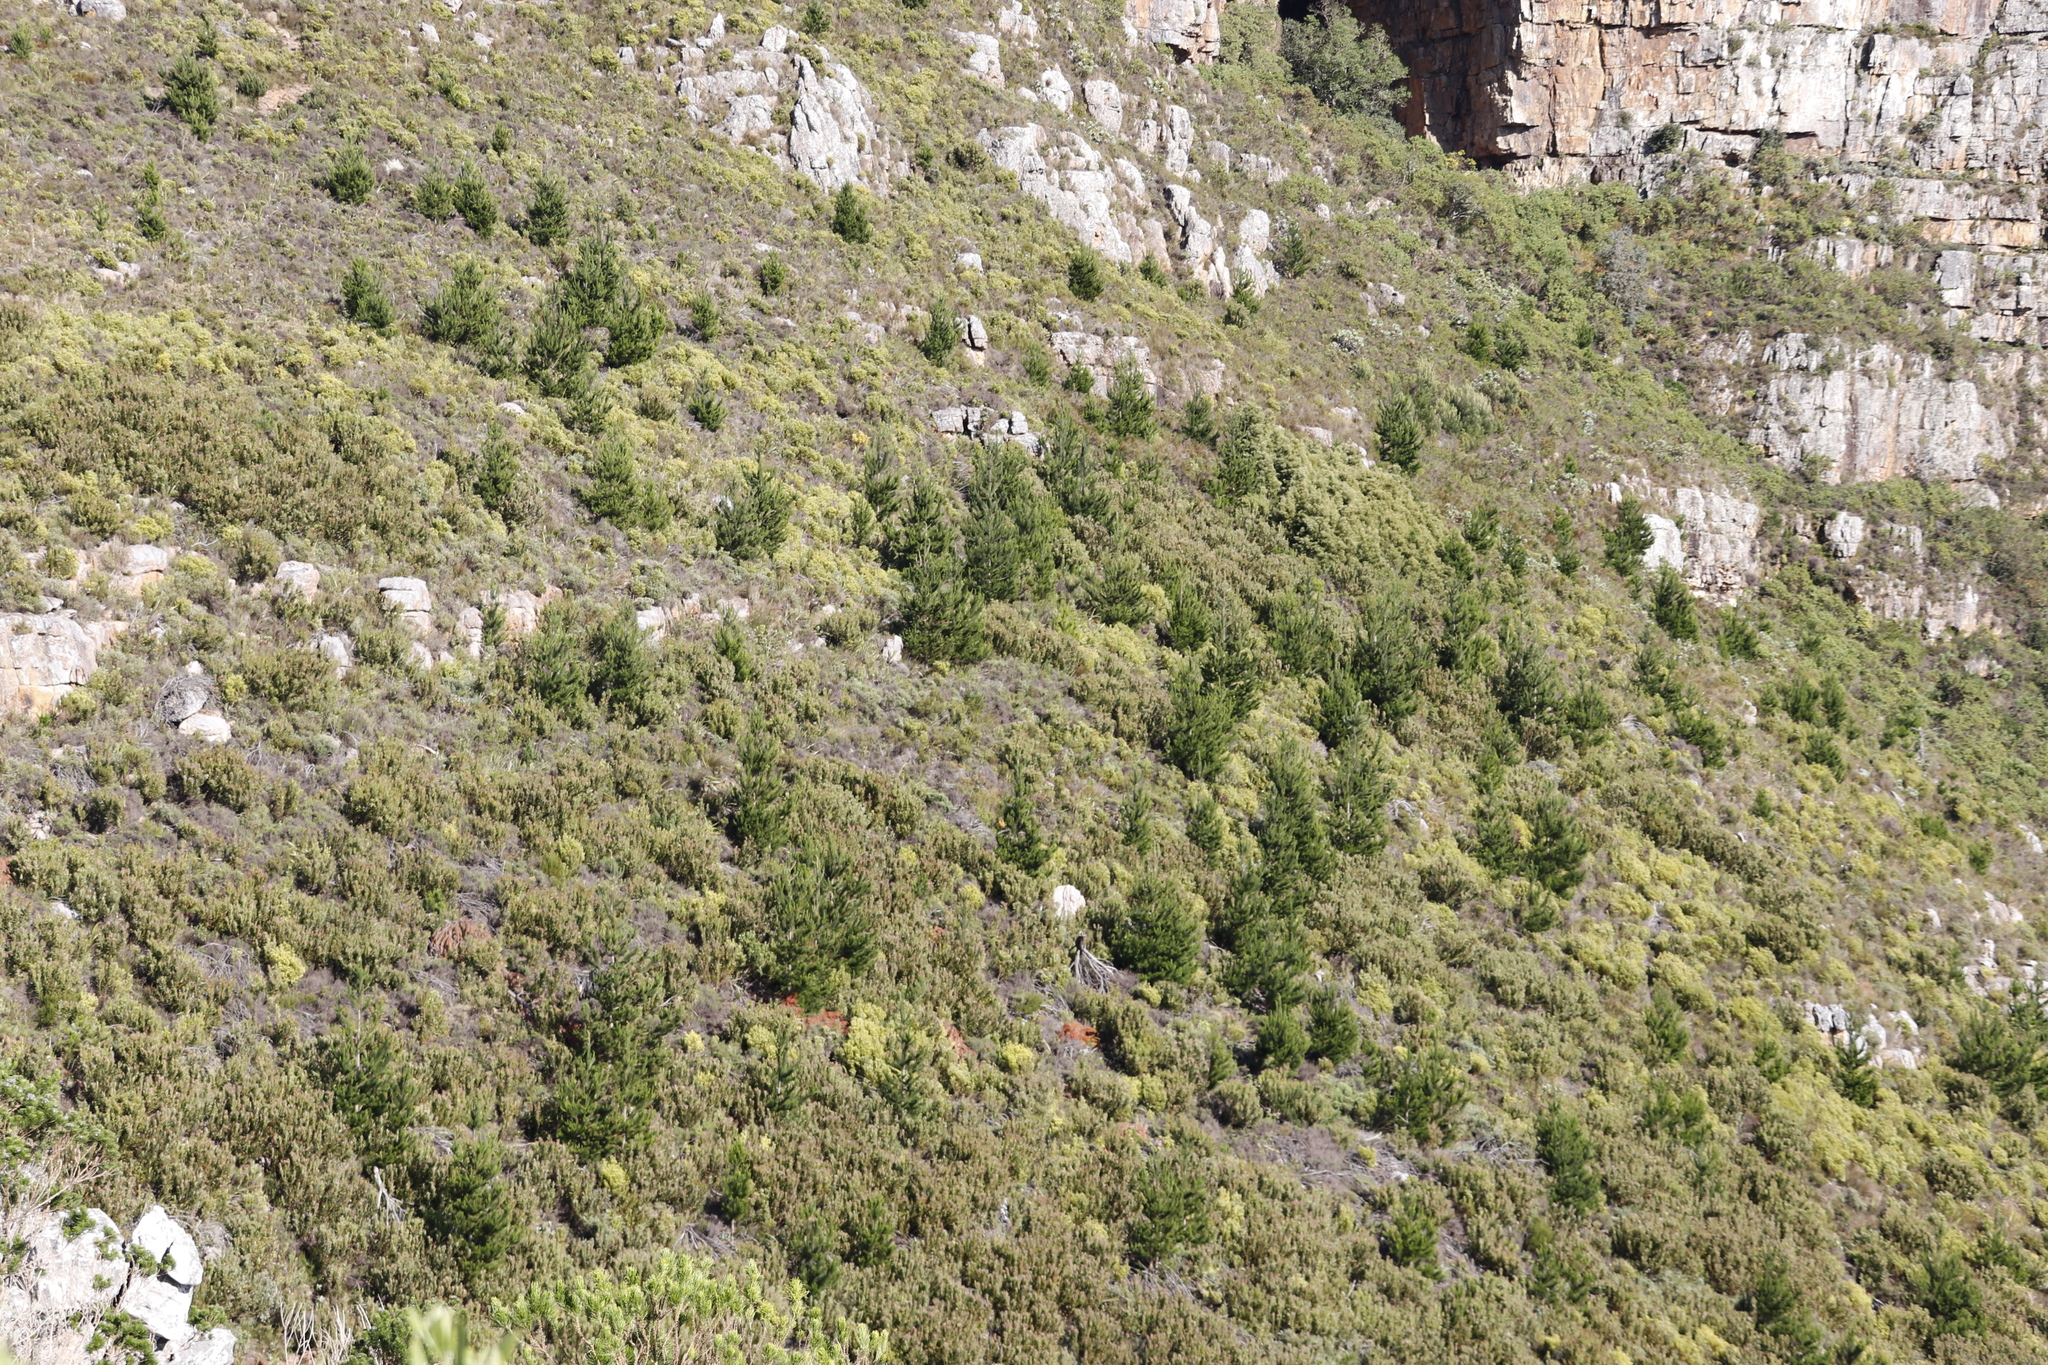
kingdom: Plantae
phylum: Tracheophyta
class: Pinopsida
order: Pinales
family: Pinaceae
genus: Pinus
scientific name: Pinus radiata
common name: Monterey pine
